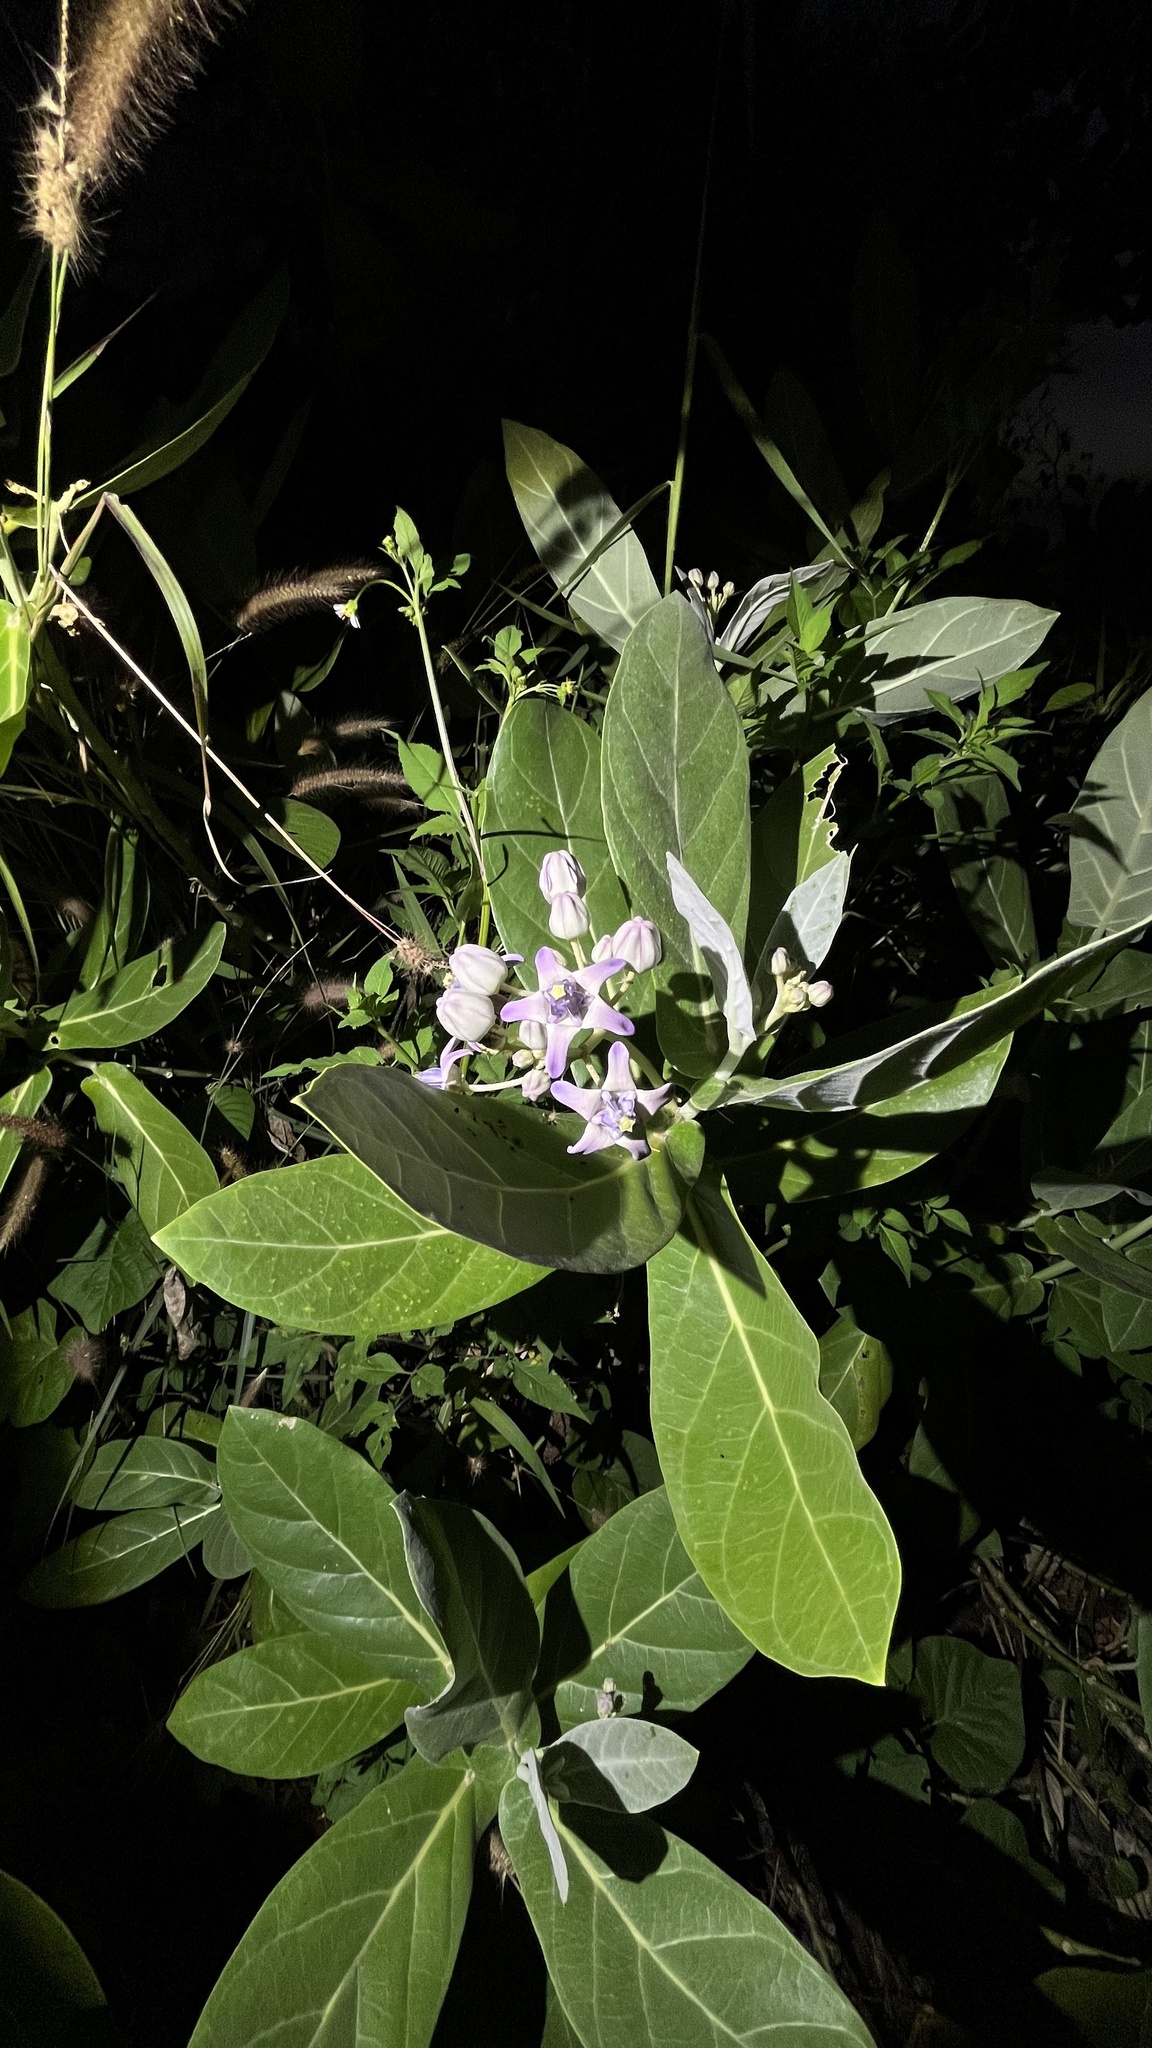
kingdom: Plantae
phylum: Tracheophyta
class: Magnoliopsida
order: Gentianales
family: Apocynaceae
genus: Calotropis
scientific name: Calotropis gigantea
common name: Crown flower
